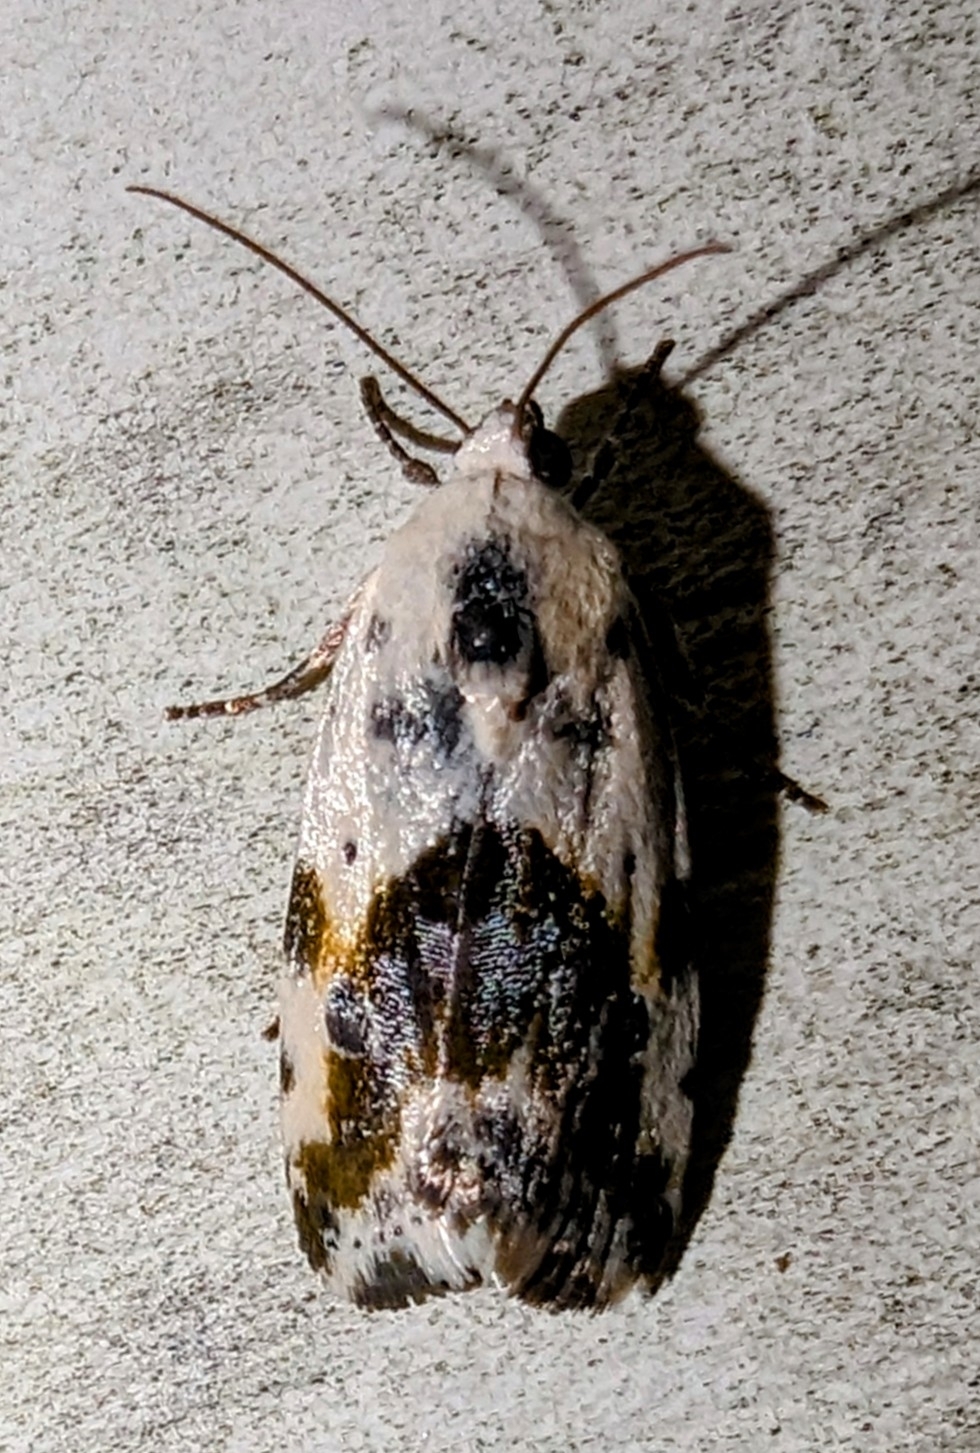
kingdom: Animalia
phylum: Arthropoda
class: Insecta
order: Lepidoptera
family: Noctuidae
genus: Acontia
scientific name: Acontia candefacta
